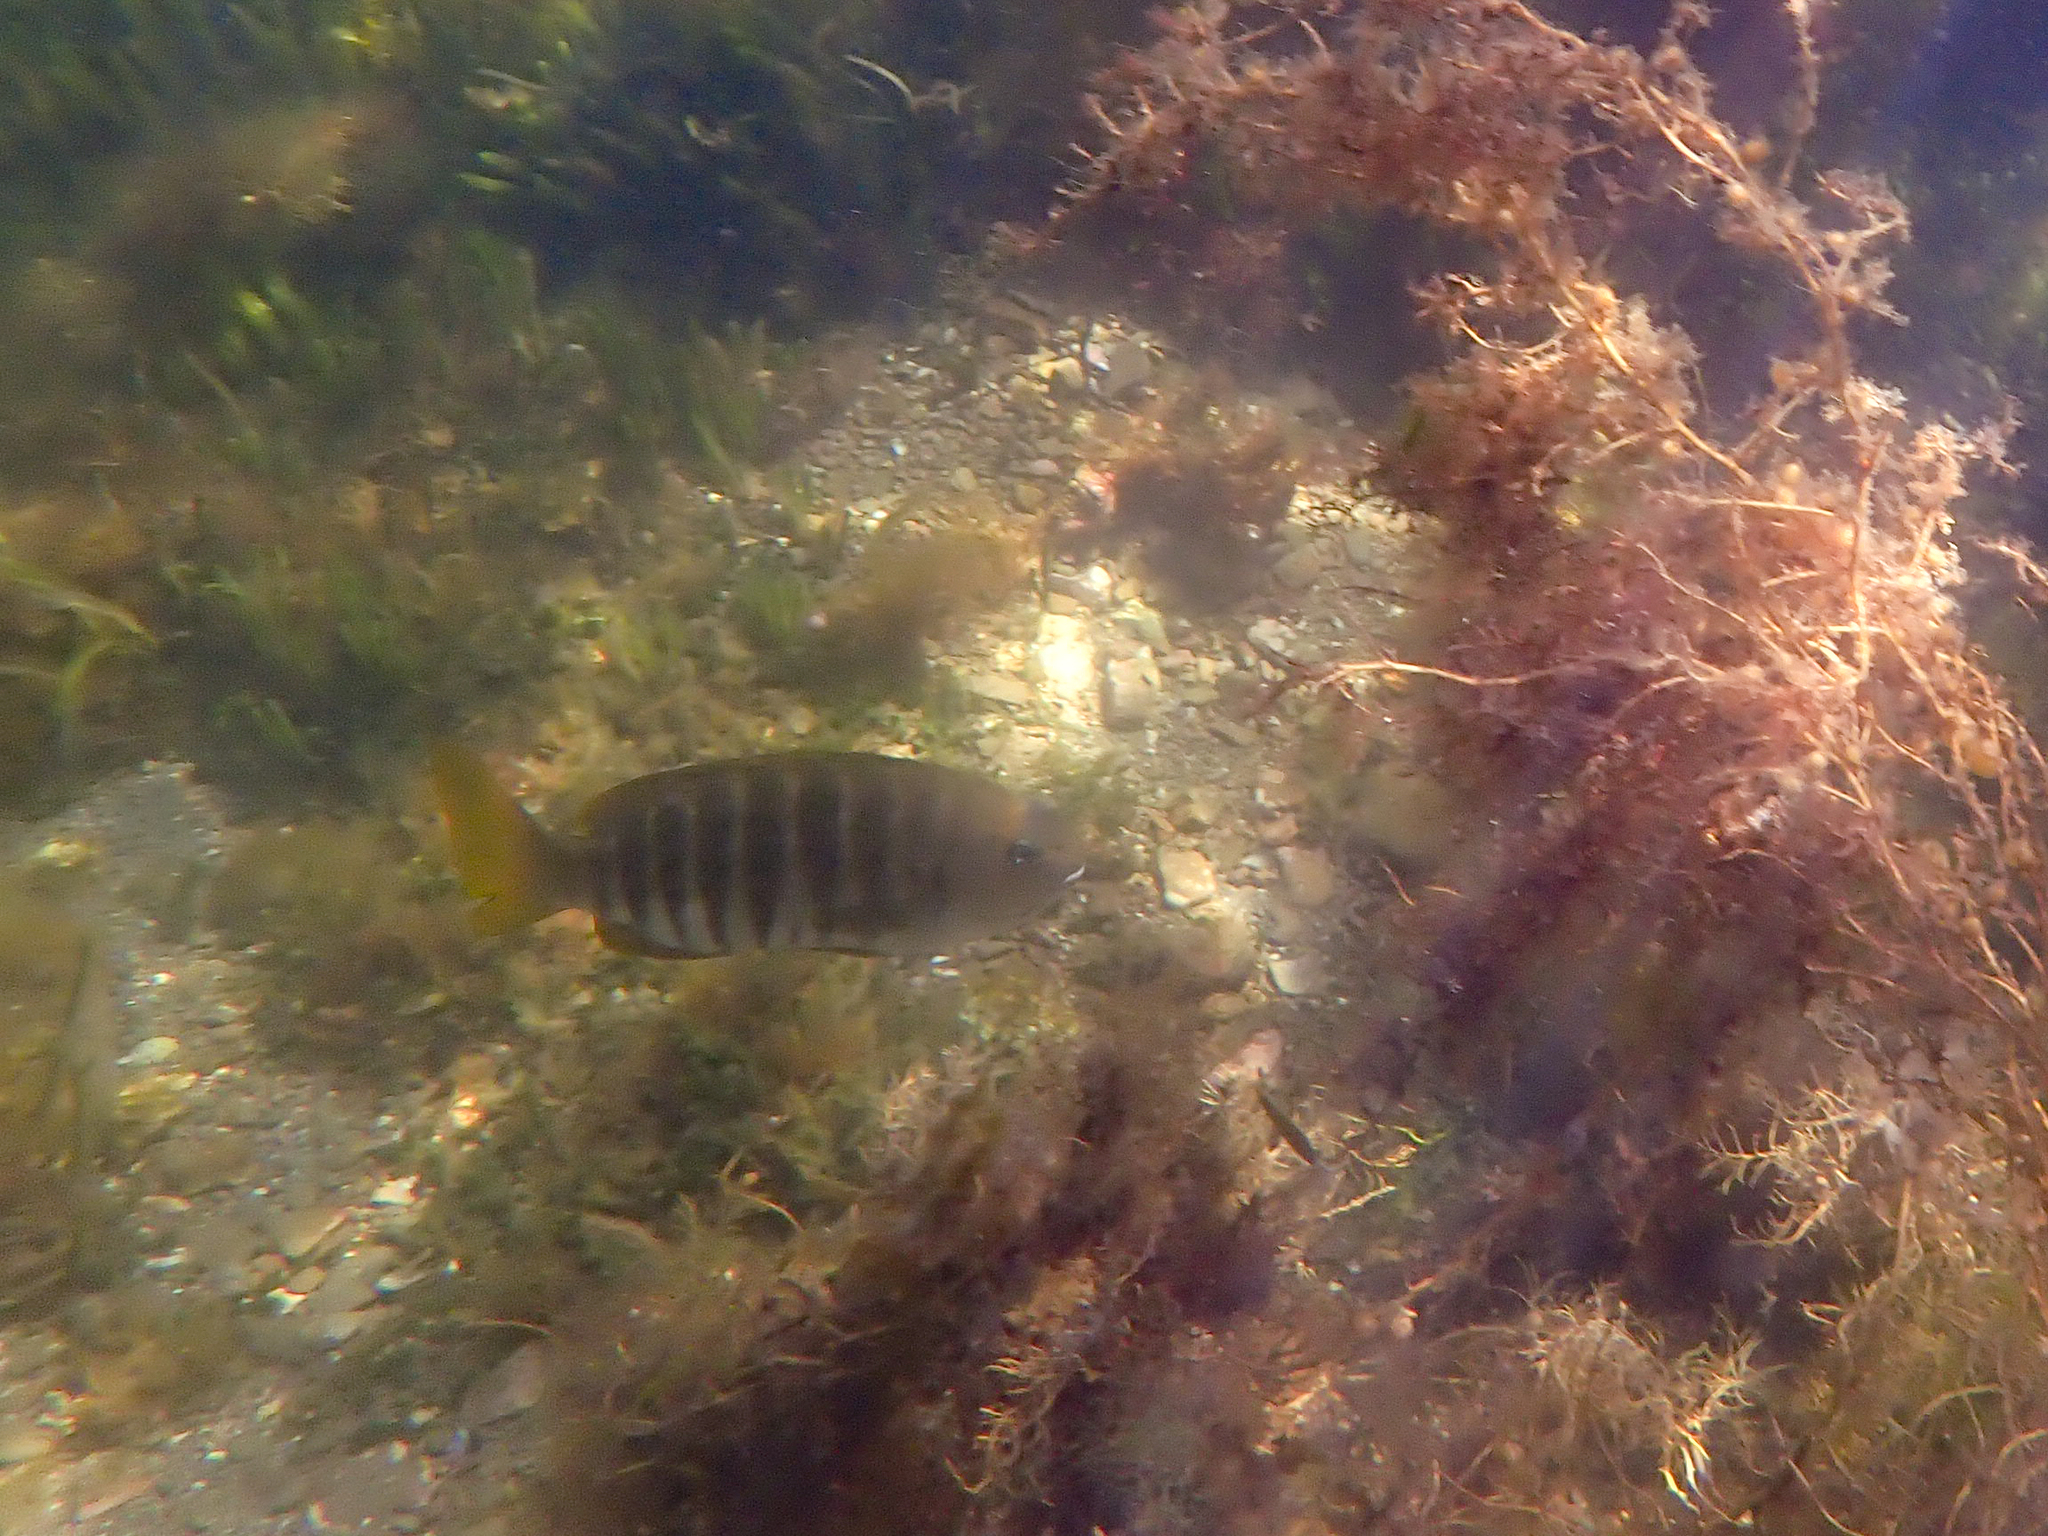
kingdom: Animalia
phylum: Chordata
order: Perciformes
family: Kyphosidae
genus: Girella
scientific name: Girella zebra
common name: Stripey bream
